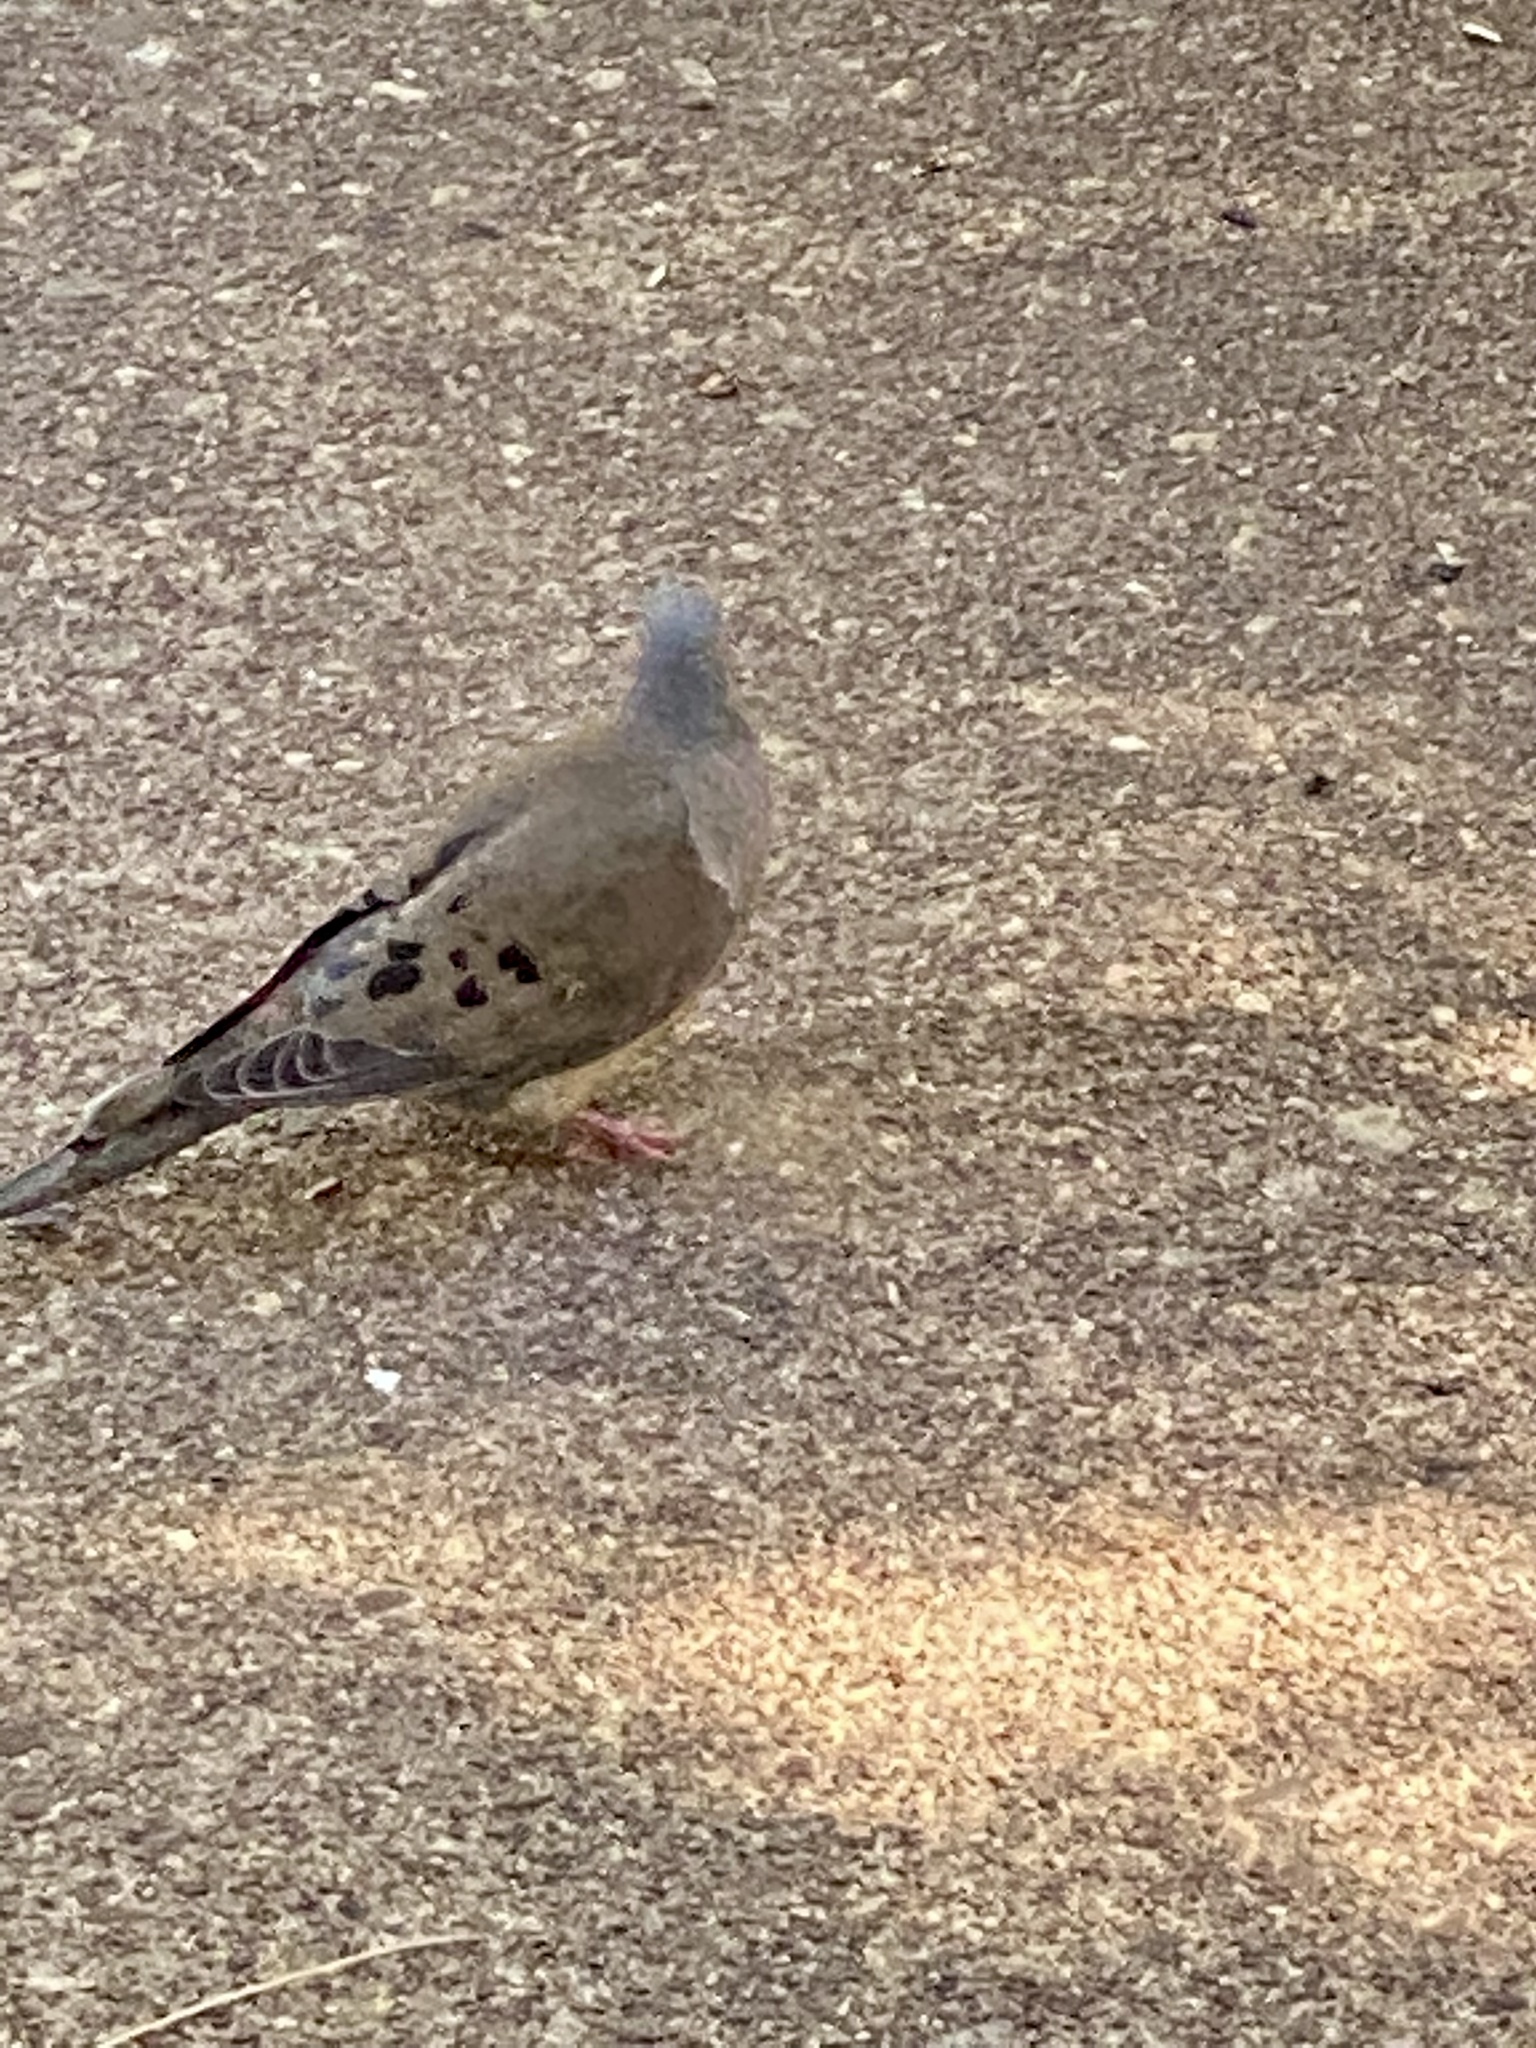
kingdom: Animalia
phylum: Chordata
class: Aves
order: Columbiformes
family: Columbidae
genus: Zenaida
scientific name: Zenaida macroura
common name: Mourning dove
